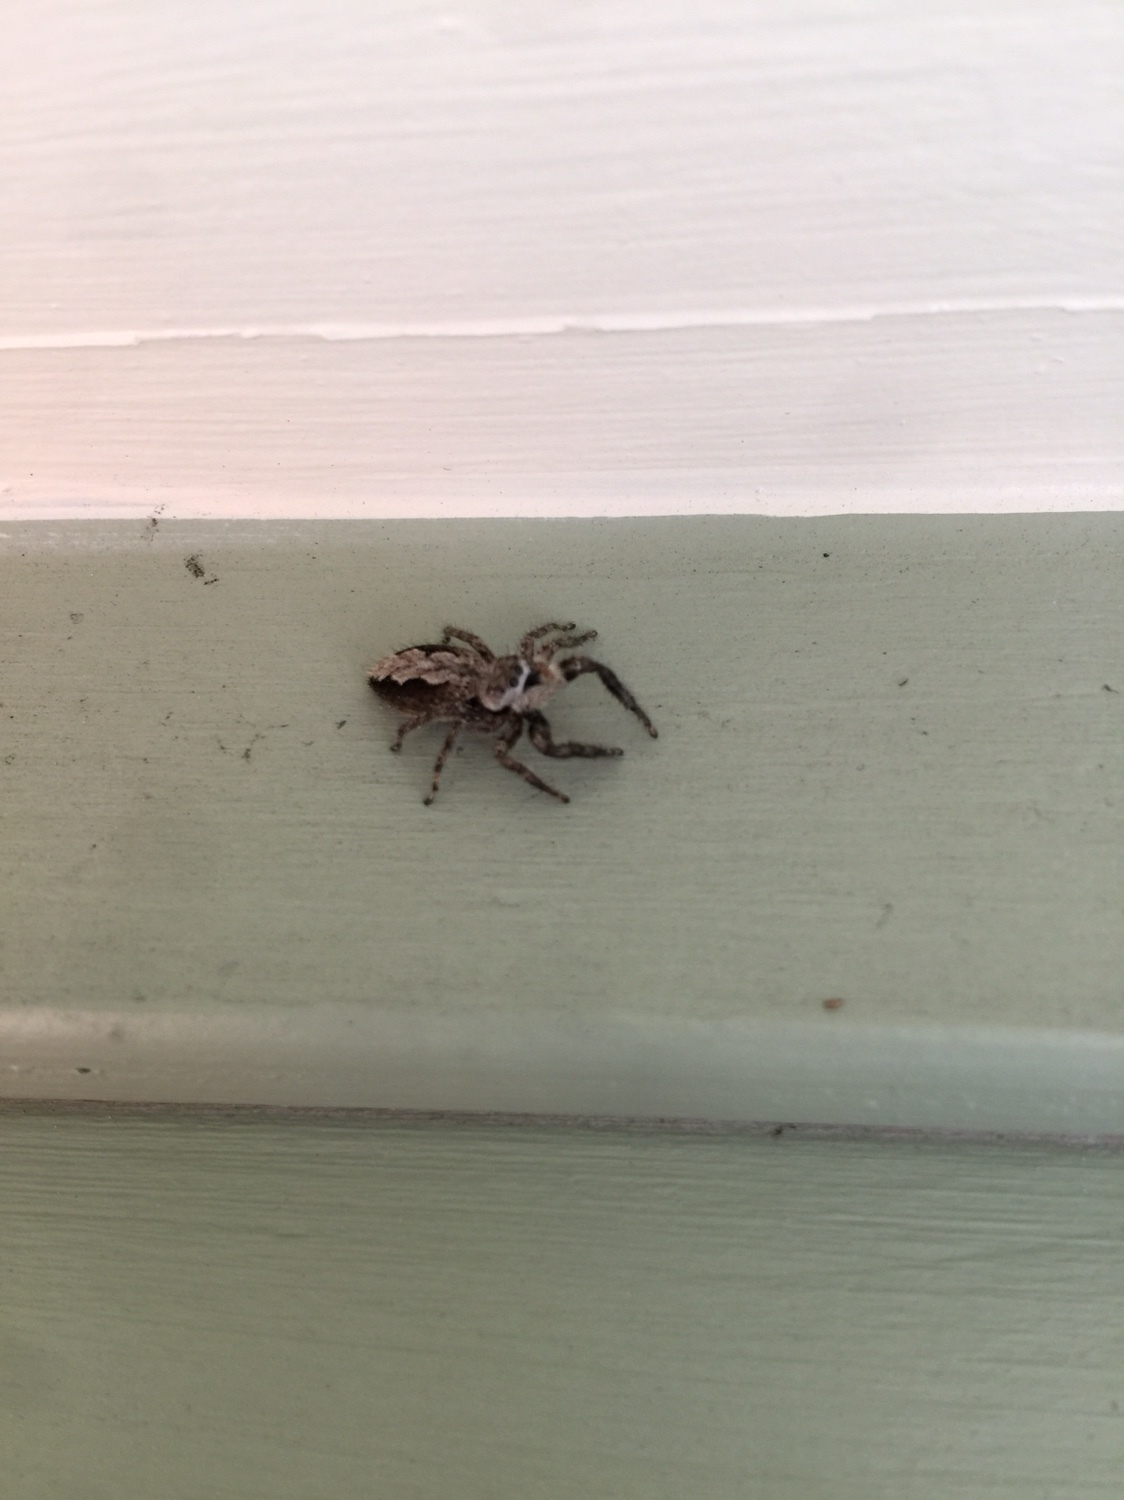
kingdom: Animalia
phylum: Arthropoda
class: Arachnida
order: Araneae
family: Salticidae
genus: Platycryptus
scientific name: Platycryptus undatus
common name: Tan jumping spider
